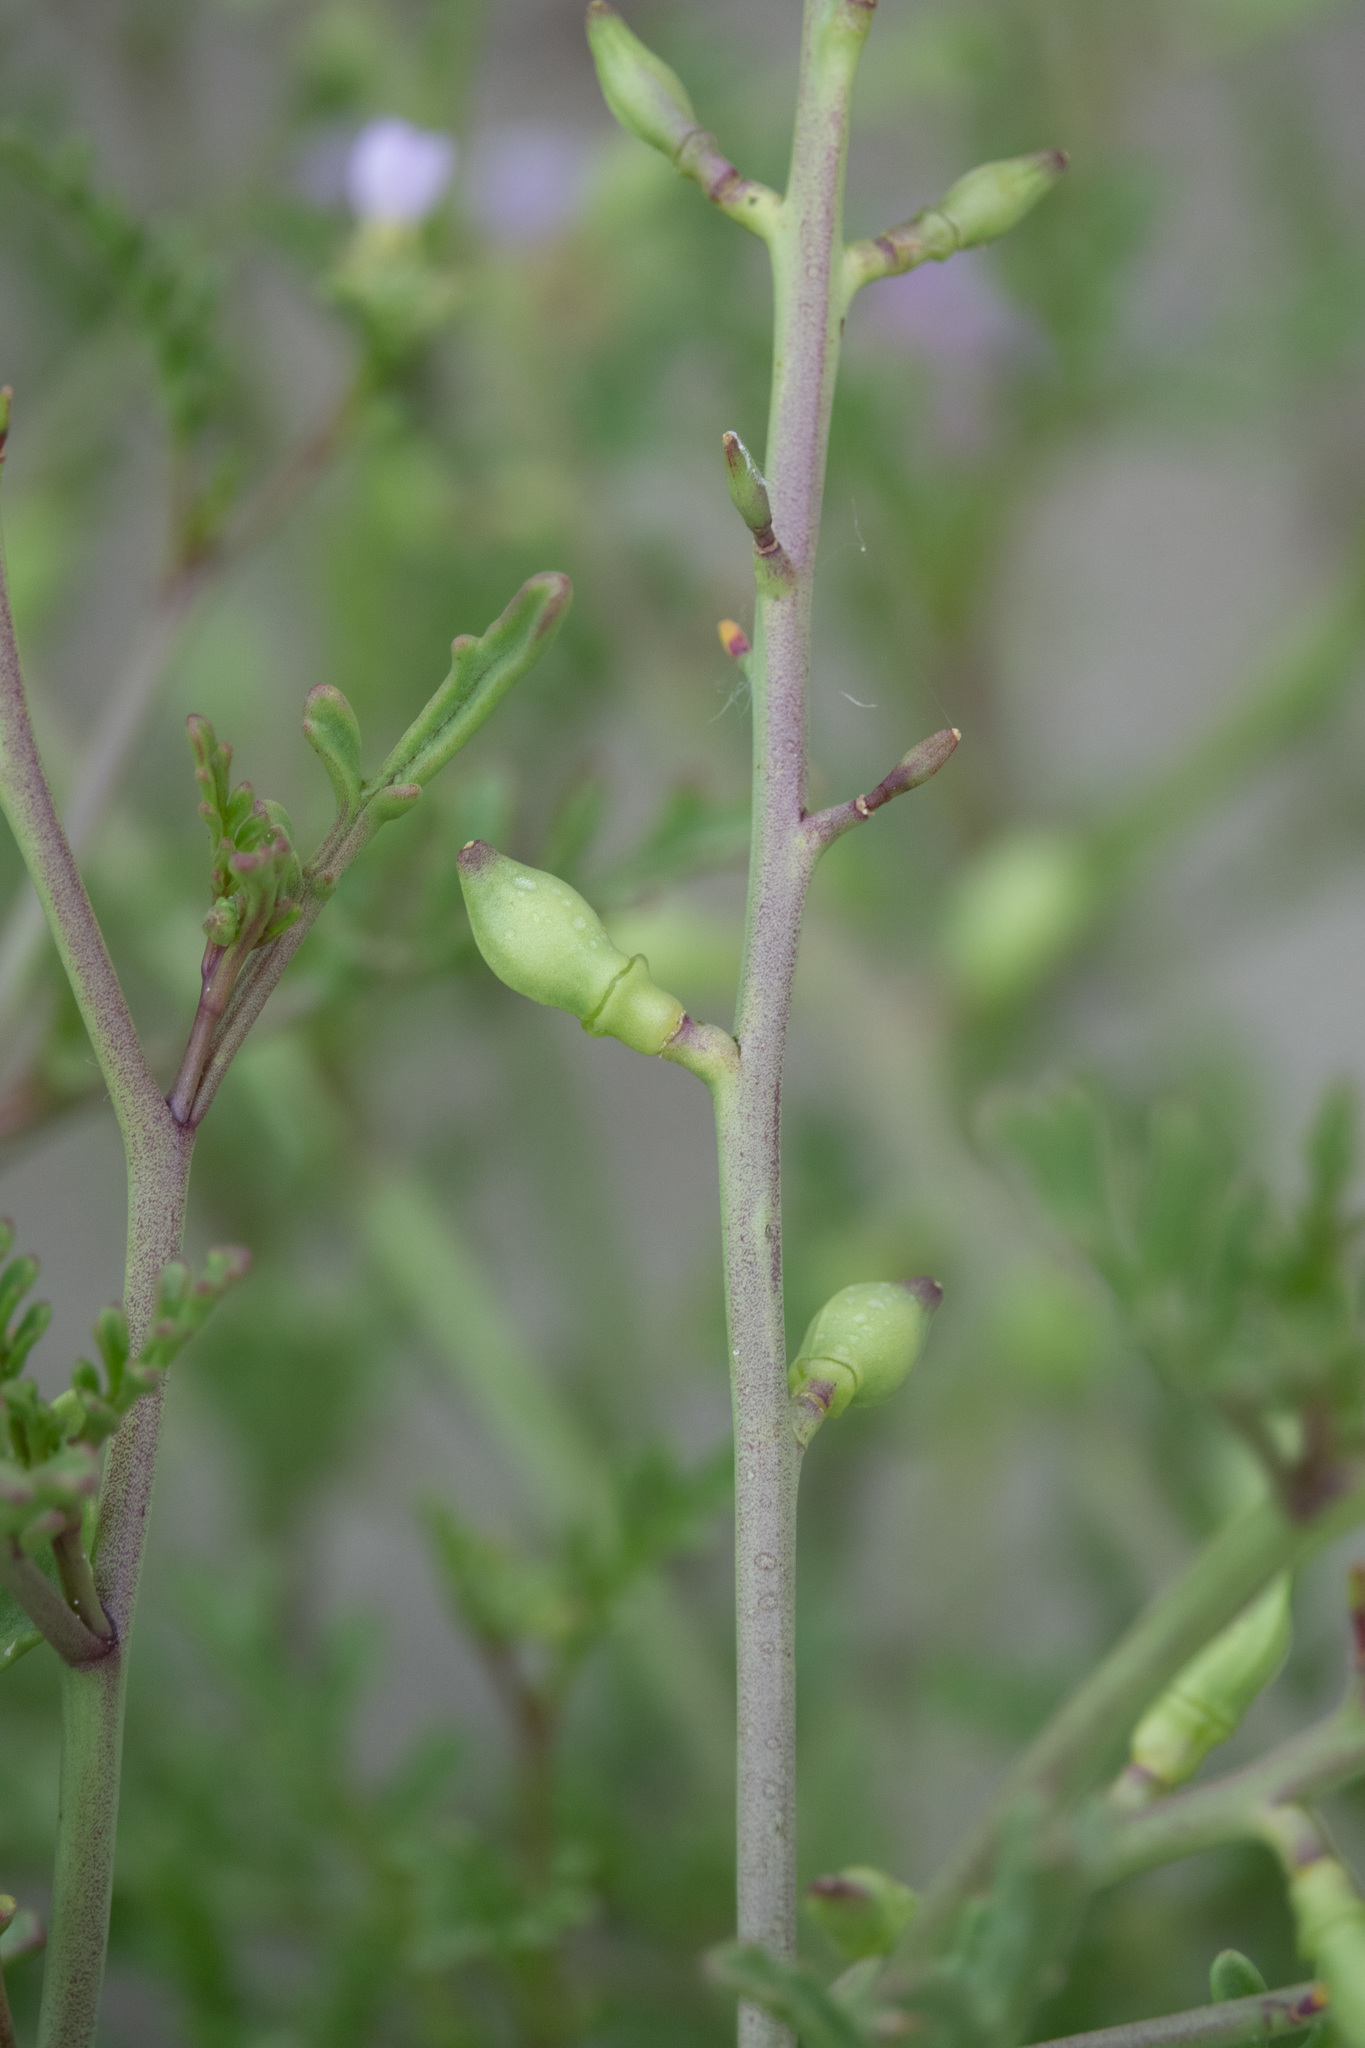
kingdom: Plantae
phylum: Tracheophyta
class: Magnoliopsida
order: Brassicales
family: Brassicaceae
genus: Cakile
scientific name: Cakile maritima
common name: Sea rocket
